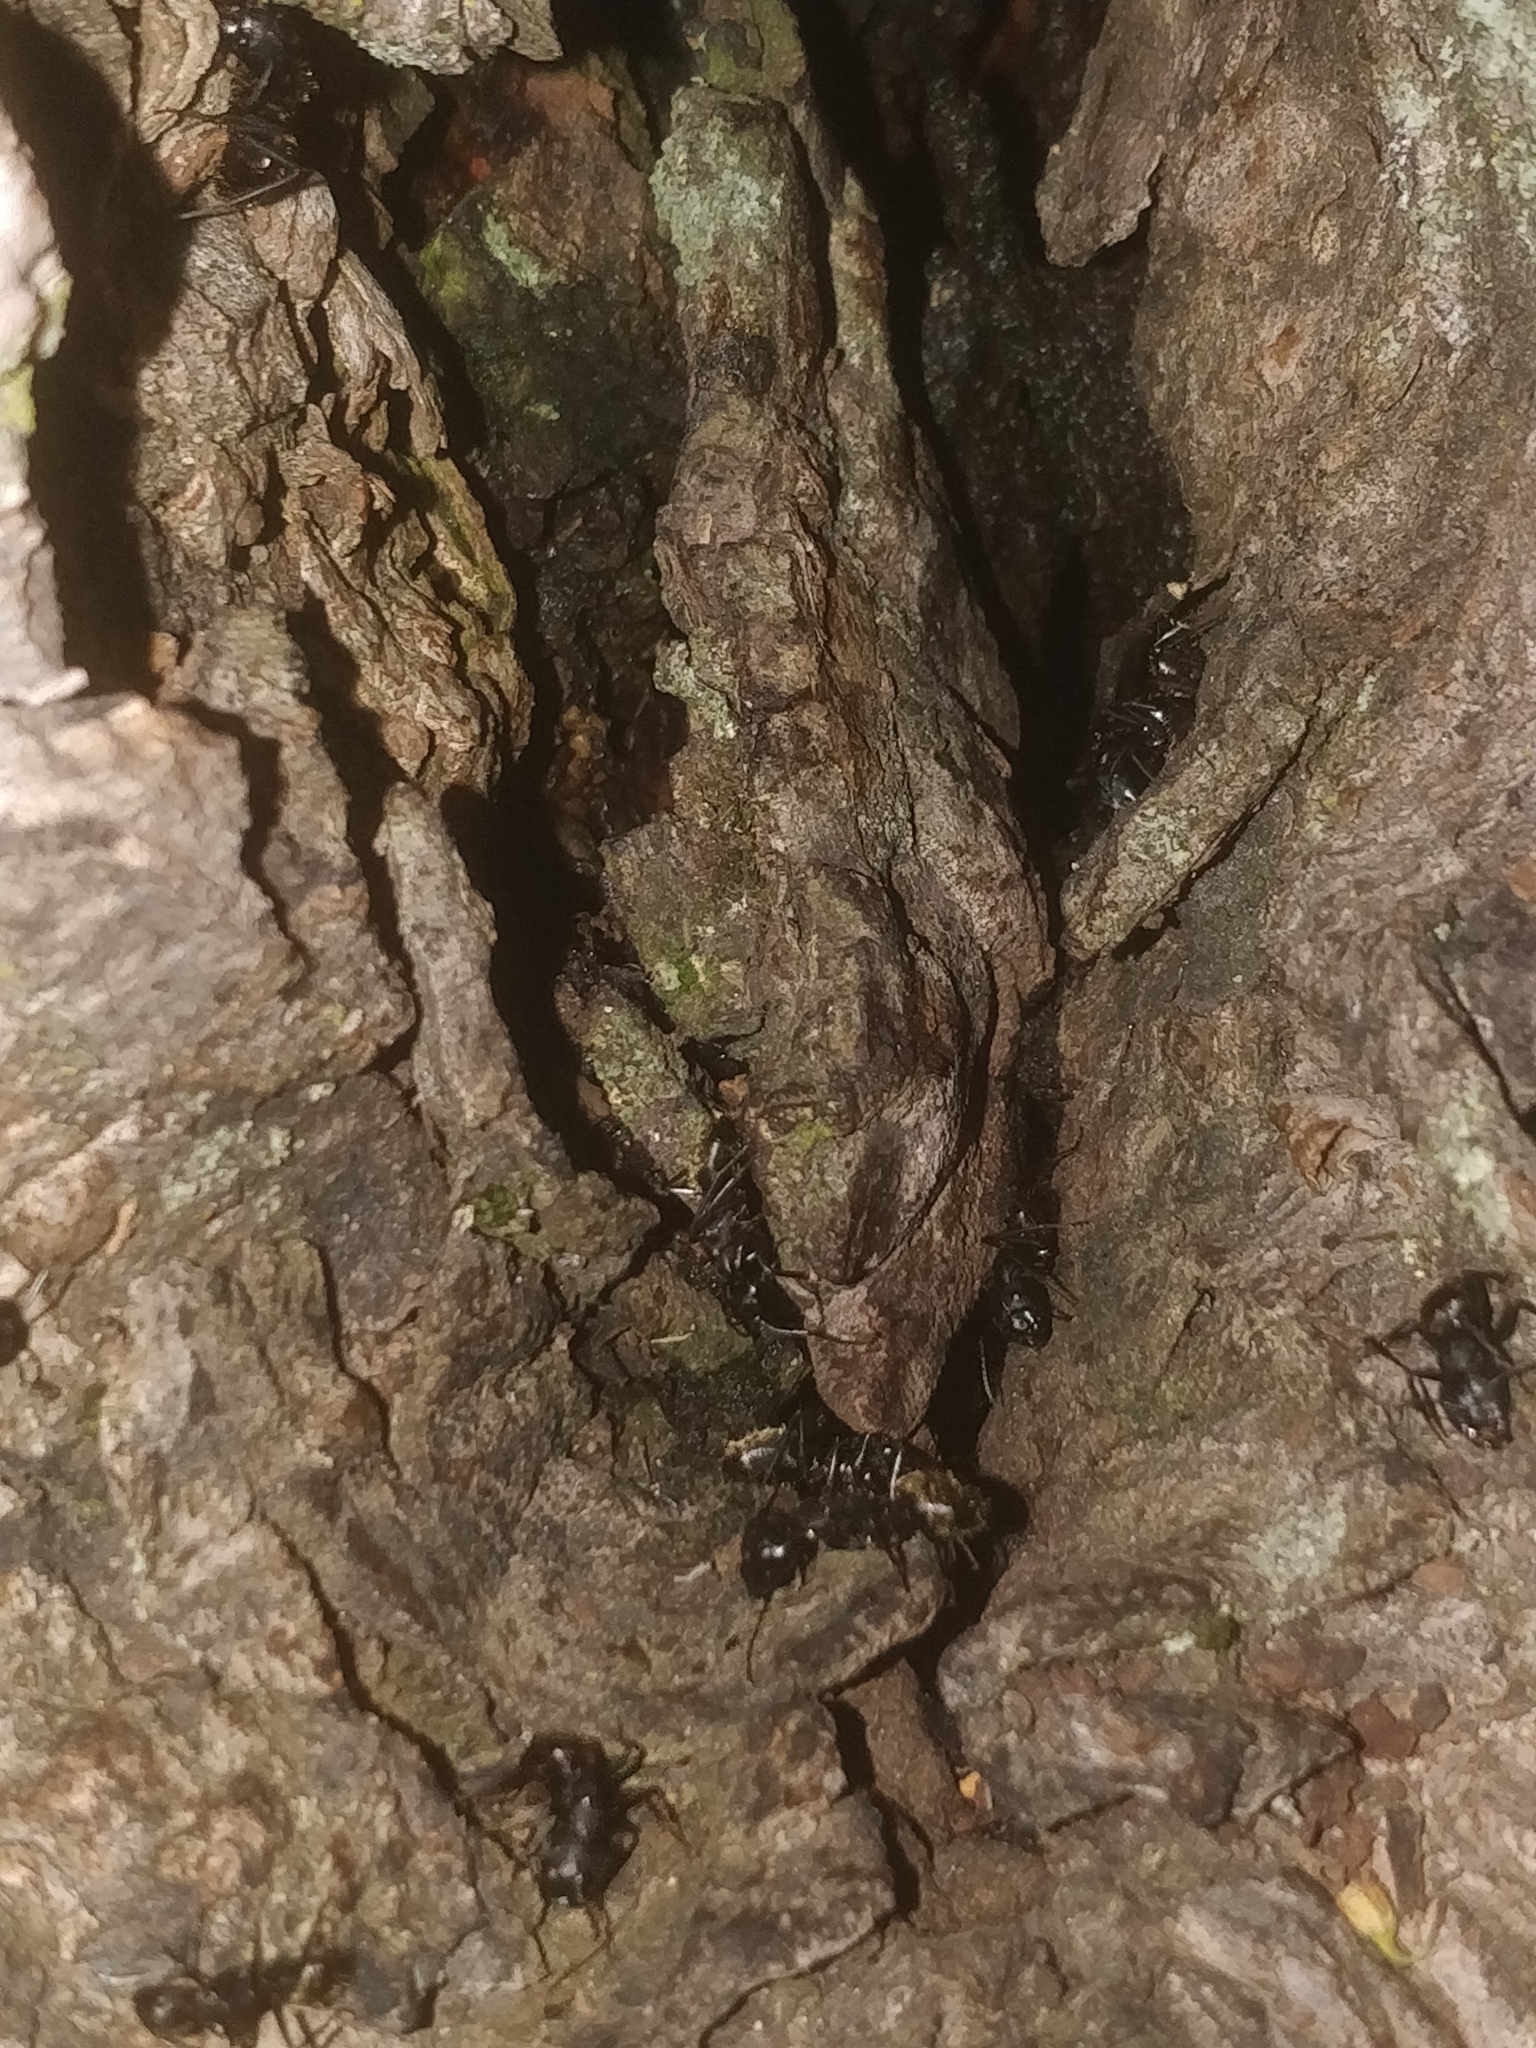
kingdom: Animalia
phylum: Arthropoda
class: Insecta
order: Hymenoptera
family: Formicidae
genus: Camponotus
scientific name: Camponotus pennsylvanicus
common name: Black carpenter ant
